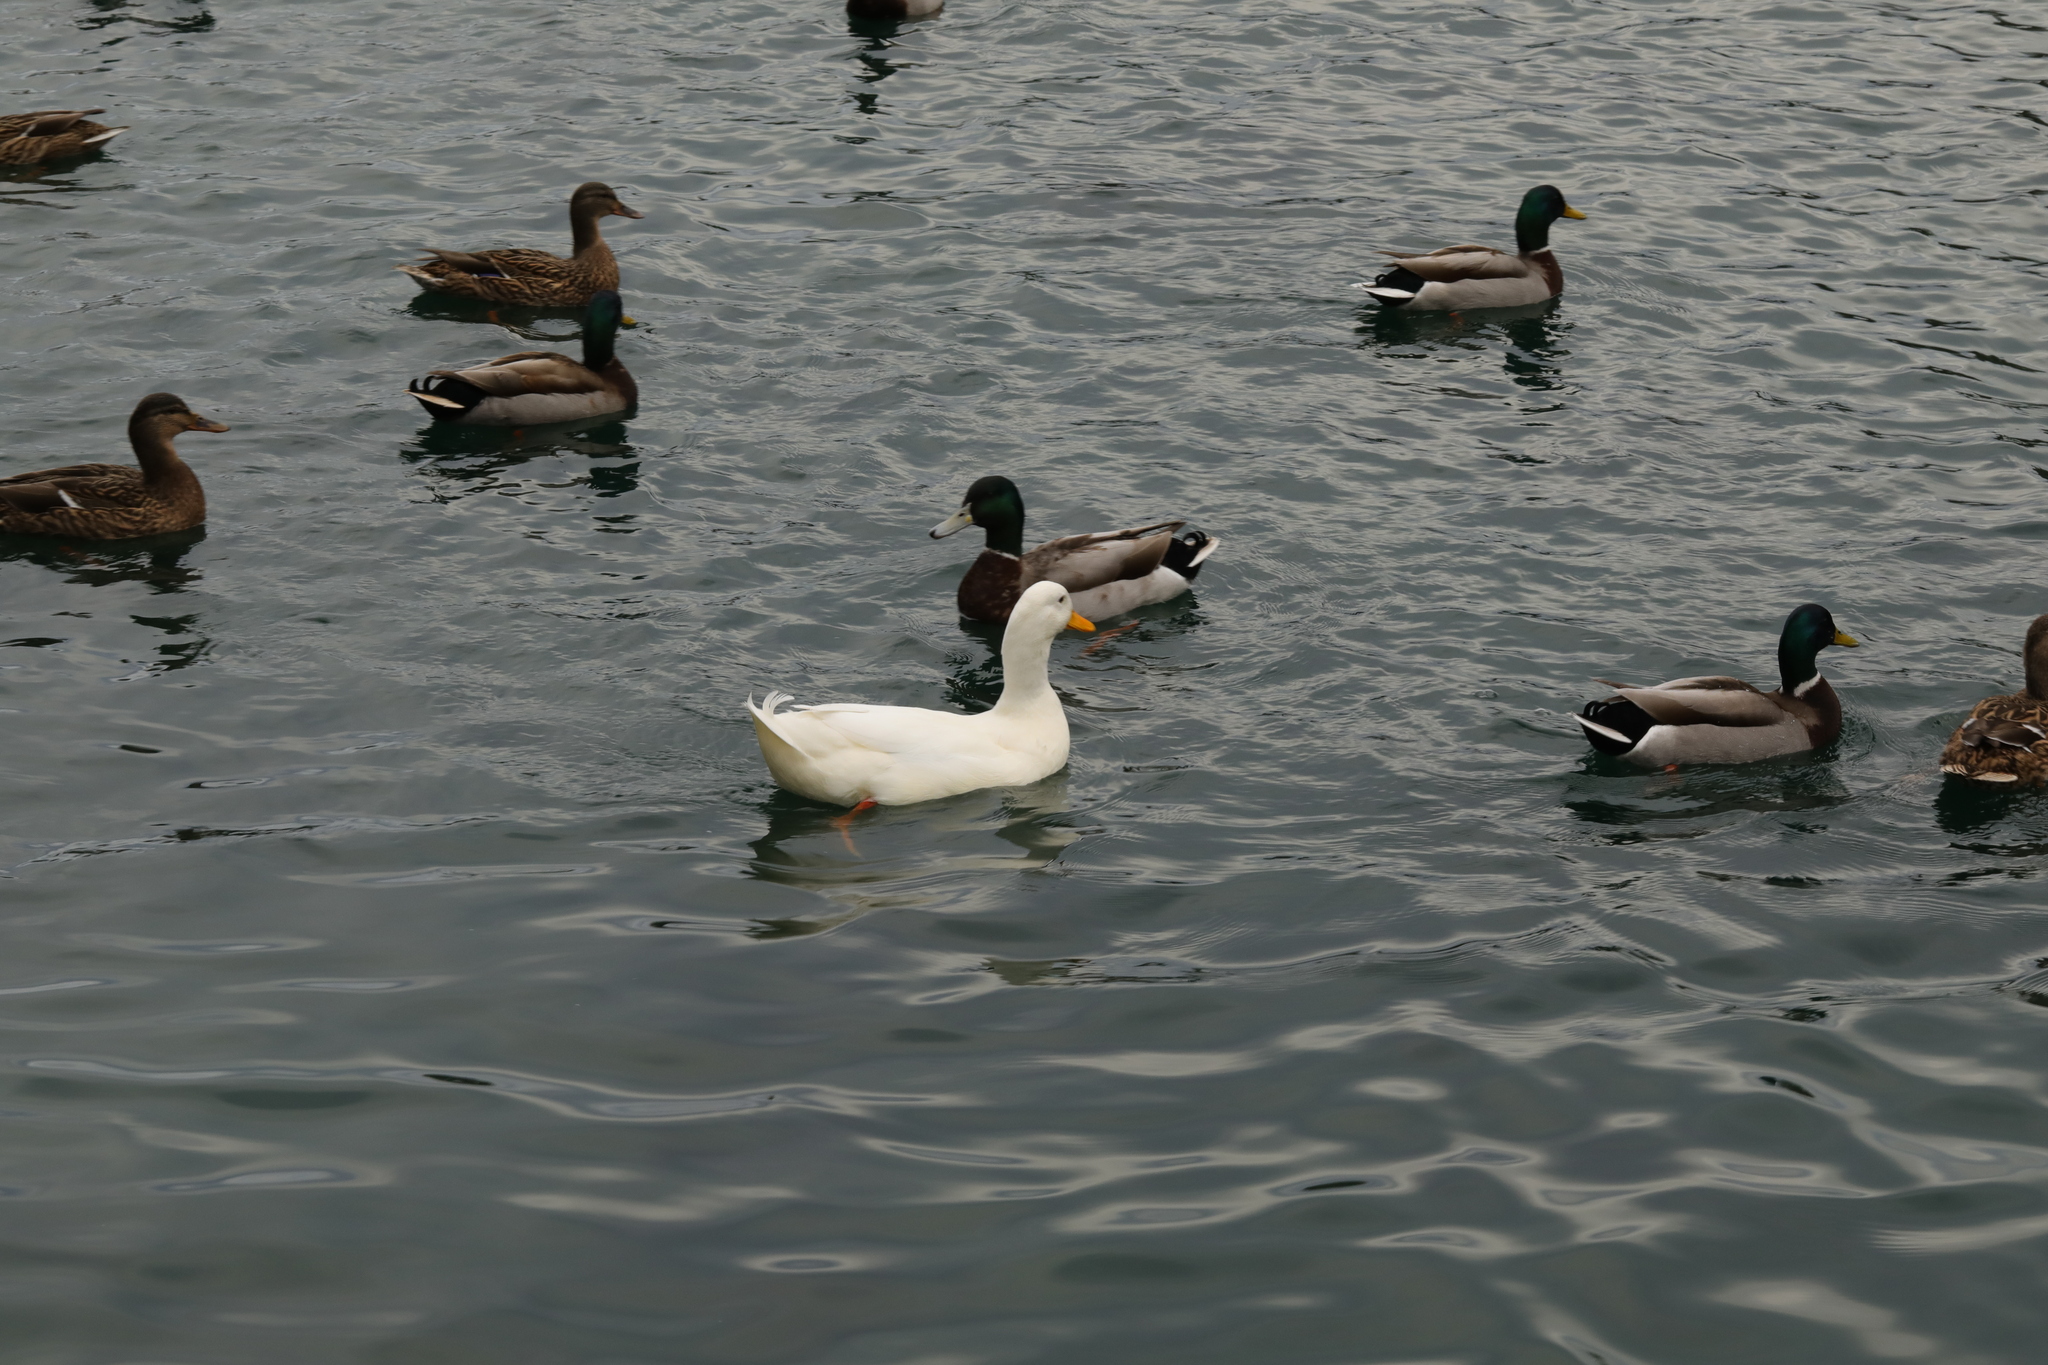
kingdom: Animalia
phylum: Chordata
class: Aves
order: Anseriformes
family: Anatidae
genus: Anas
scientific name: Anas platyrhynchos
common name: Mallard
